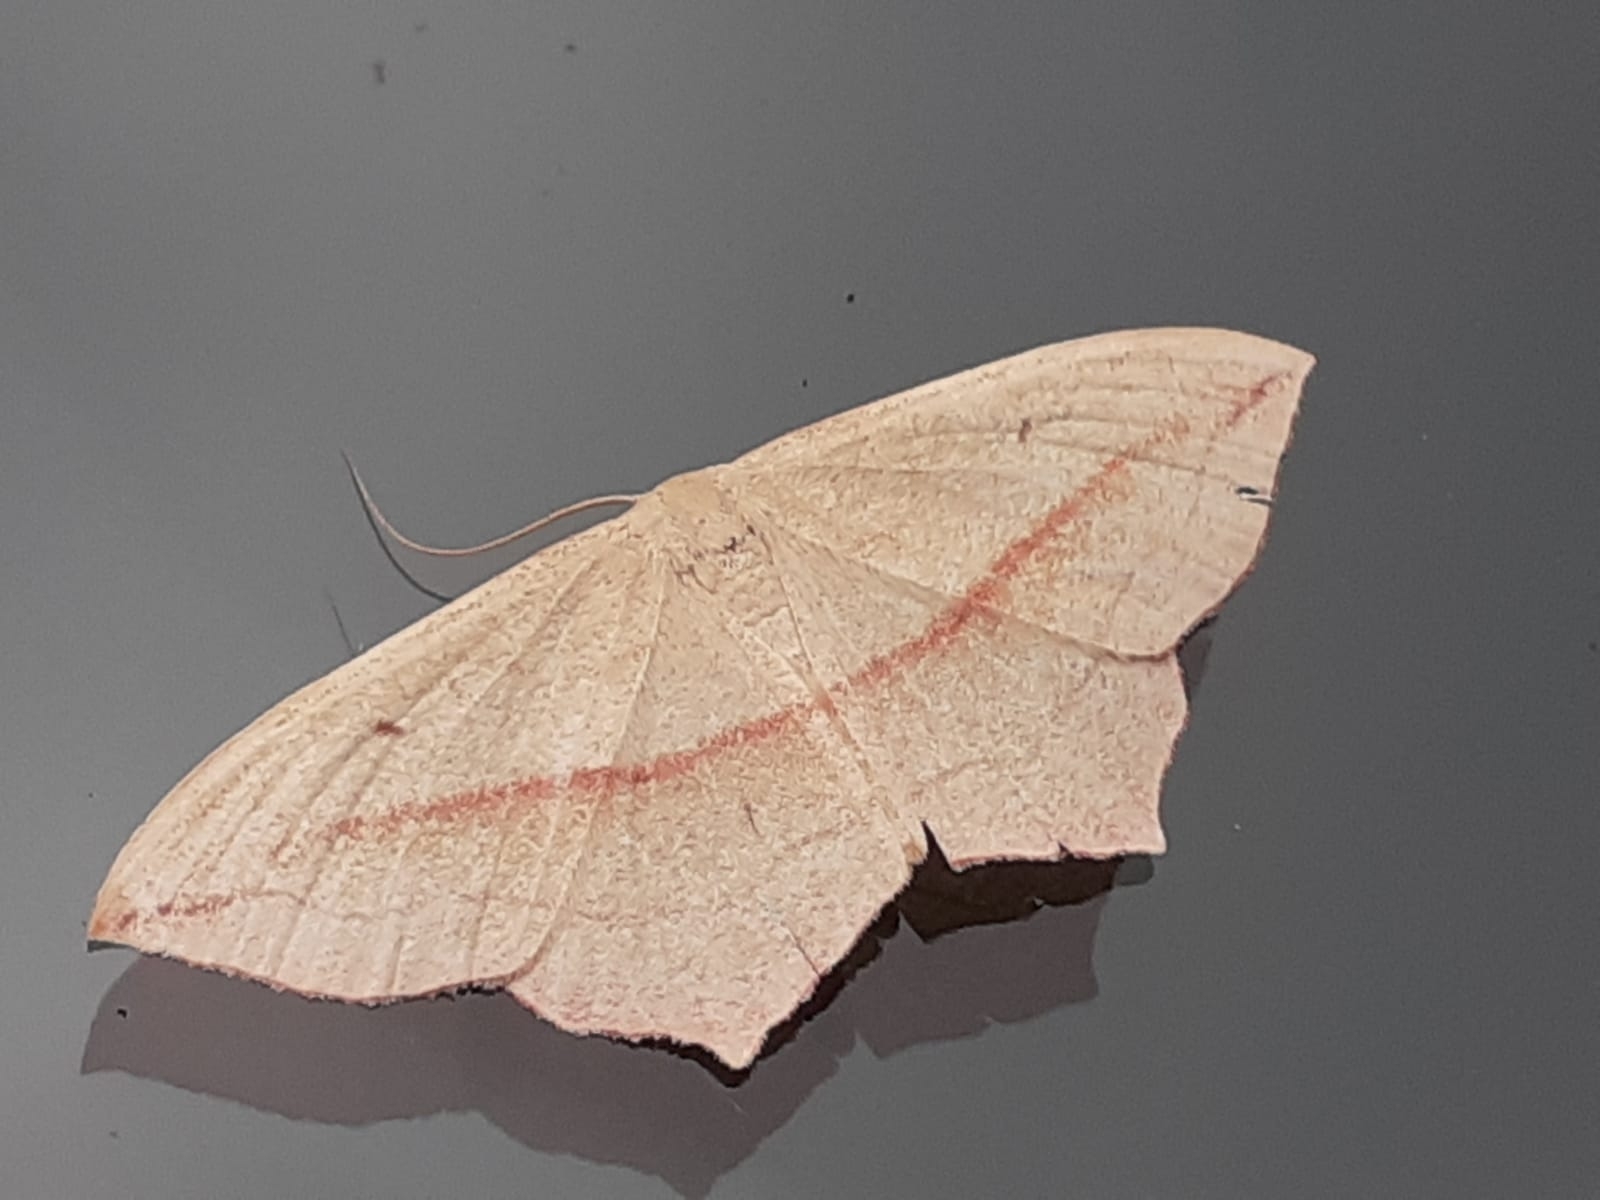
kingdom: Animalia
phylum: Arthropoda
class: Insecta
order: Lepidoptera
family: Geometridae
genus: Timandra
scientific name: Timandra comae
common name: Blood-vein
